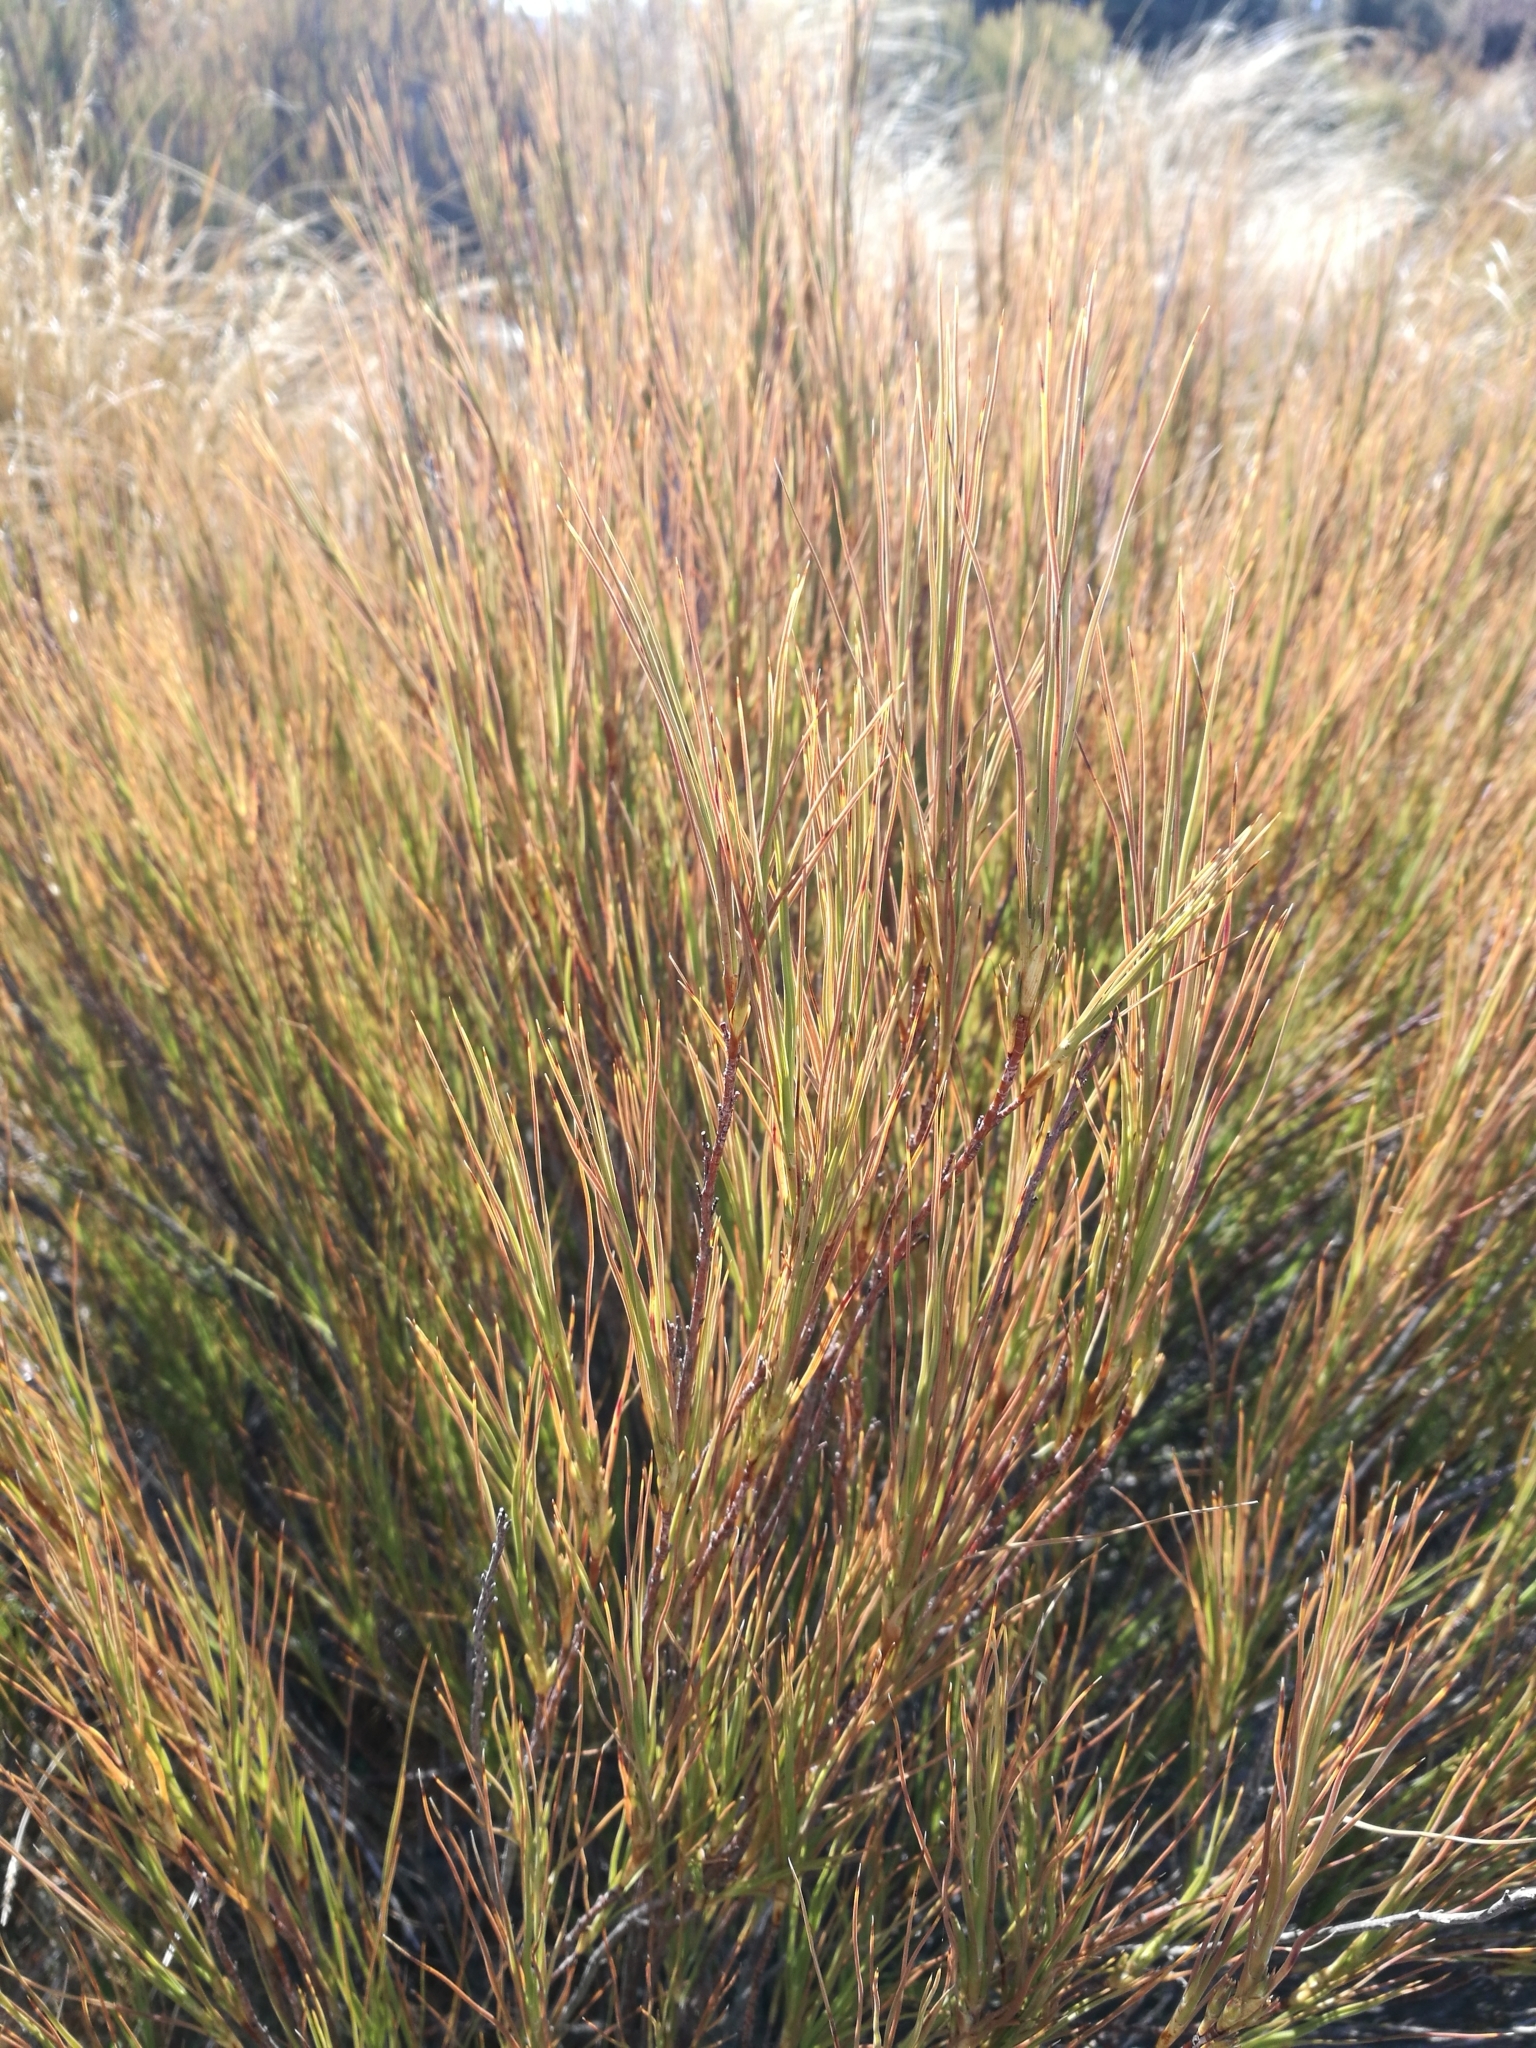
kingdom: Plantae
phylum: Tracheophyta
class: Magnoliopsida
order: Ericales
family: Ericaceae
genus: Dracophyllum
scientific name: Dracophyllum longifolium
